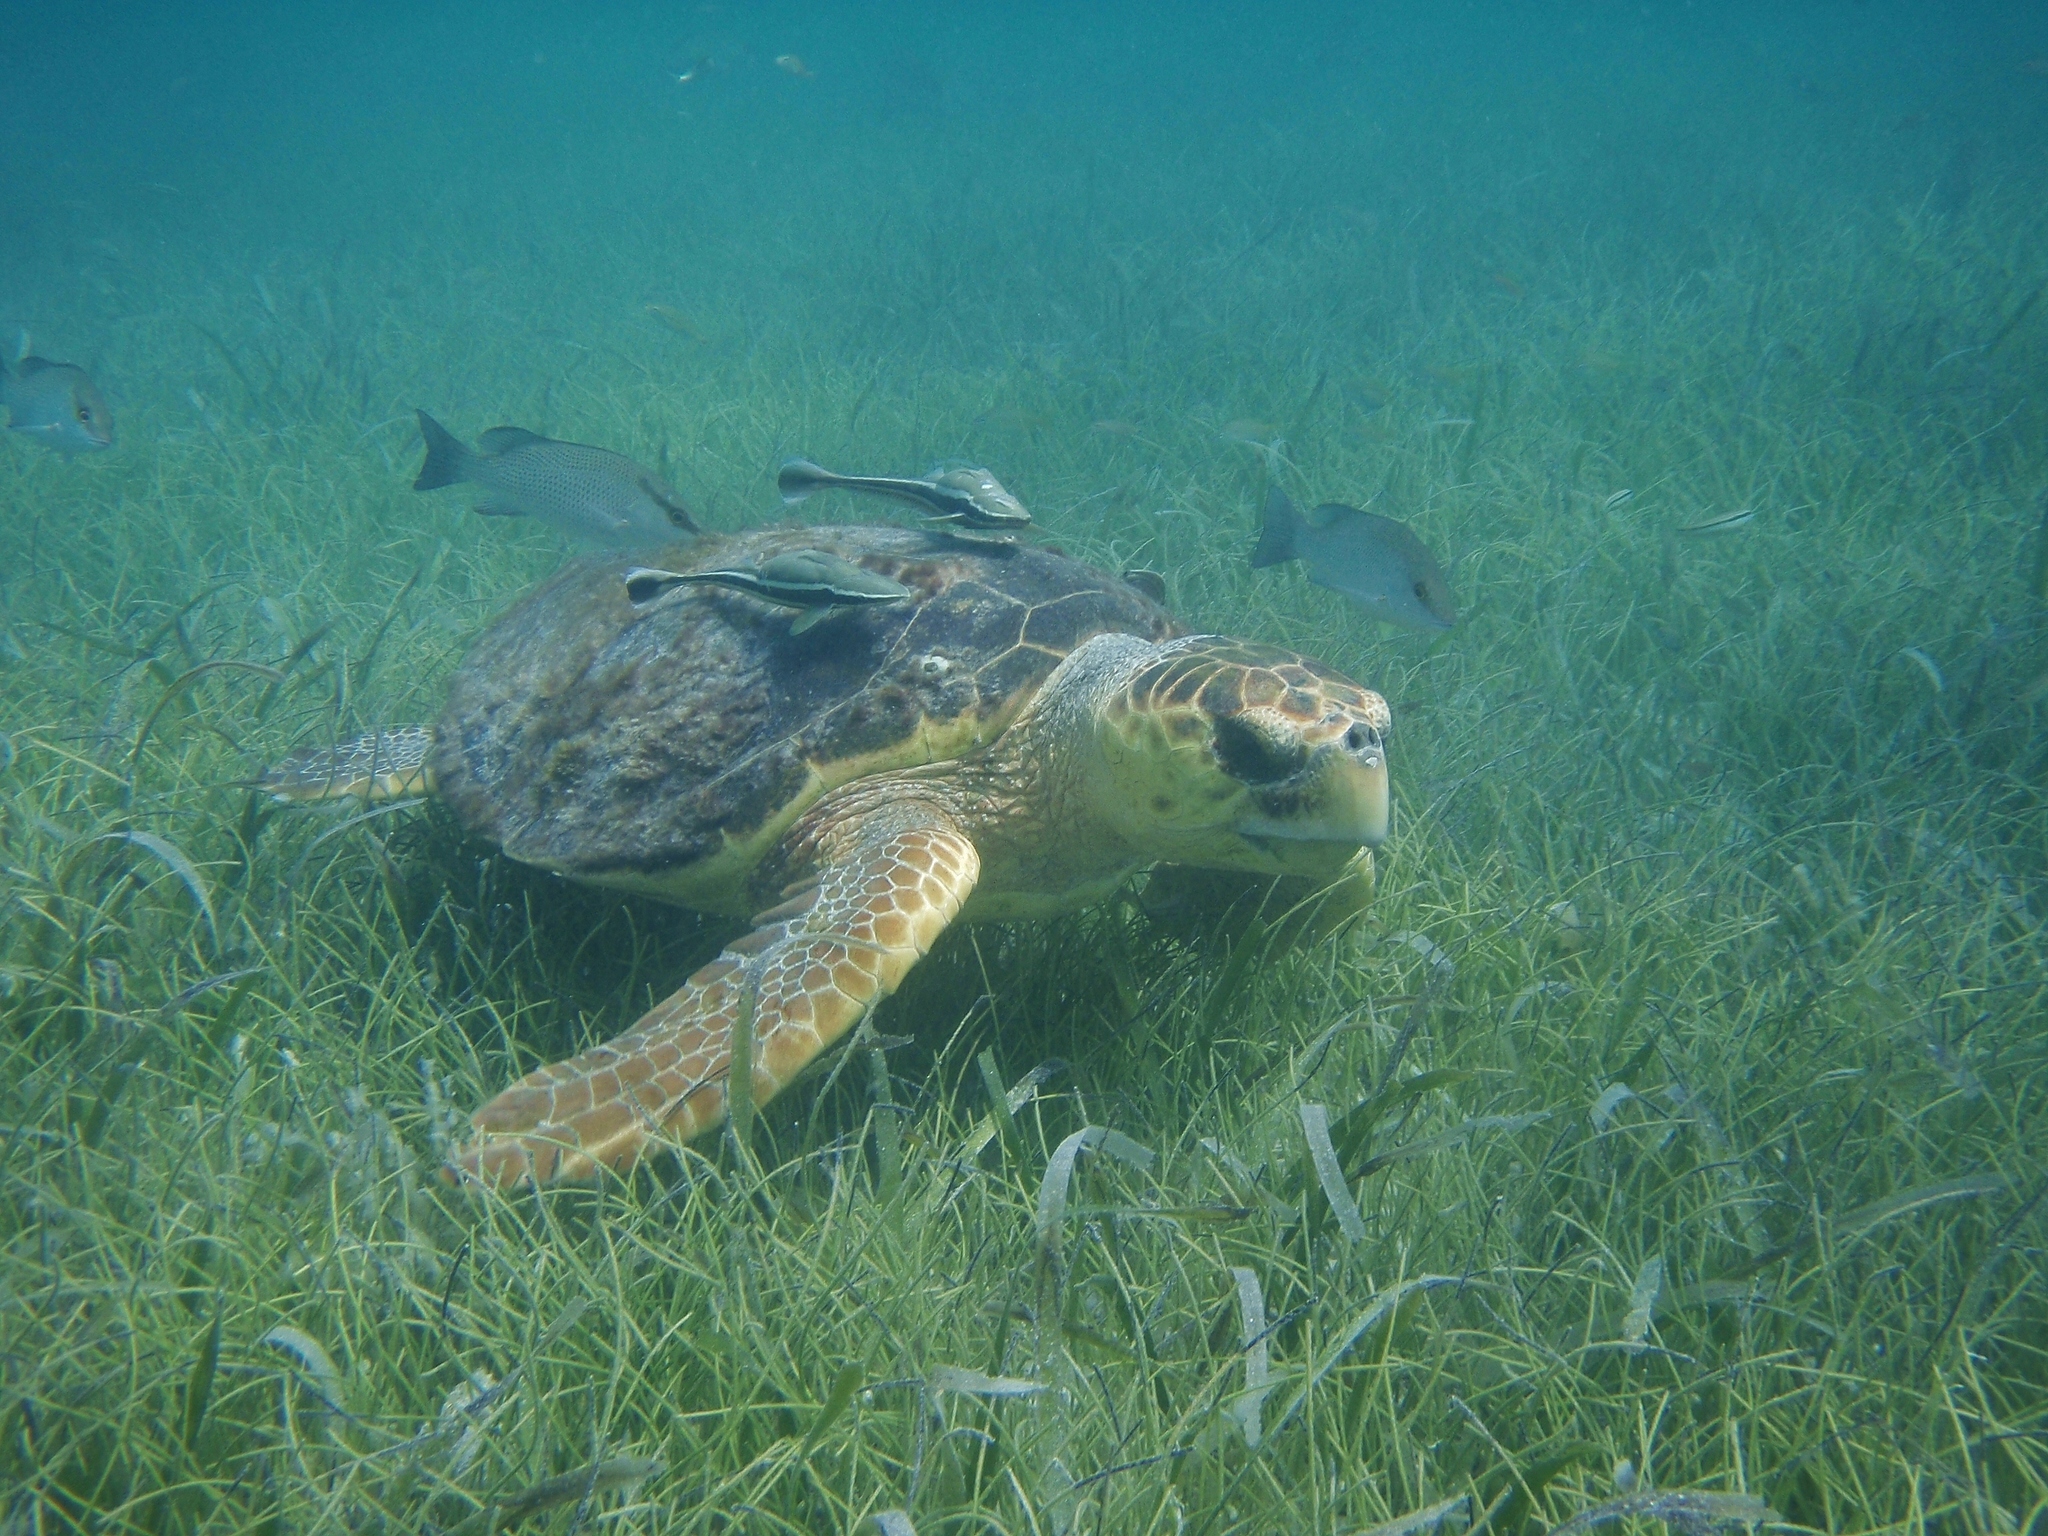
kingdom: Animalia
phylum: Chordata
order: Perciformes
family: Echeneidae
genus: Echeneis
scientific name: Echeneis naucrates
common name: Sharksucker
